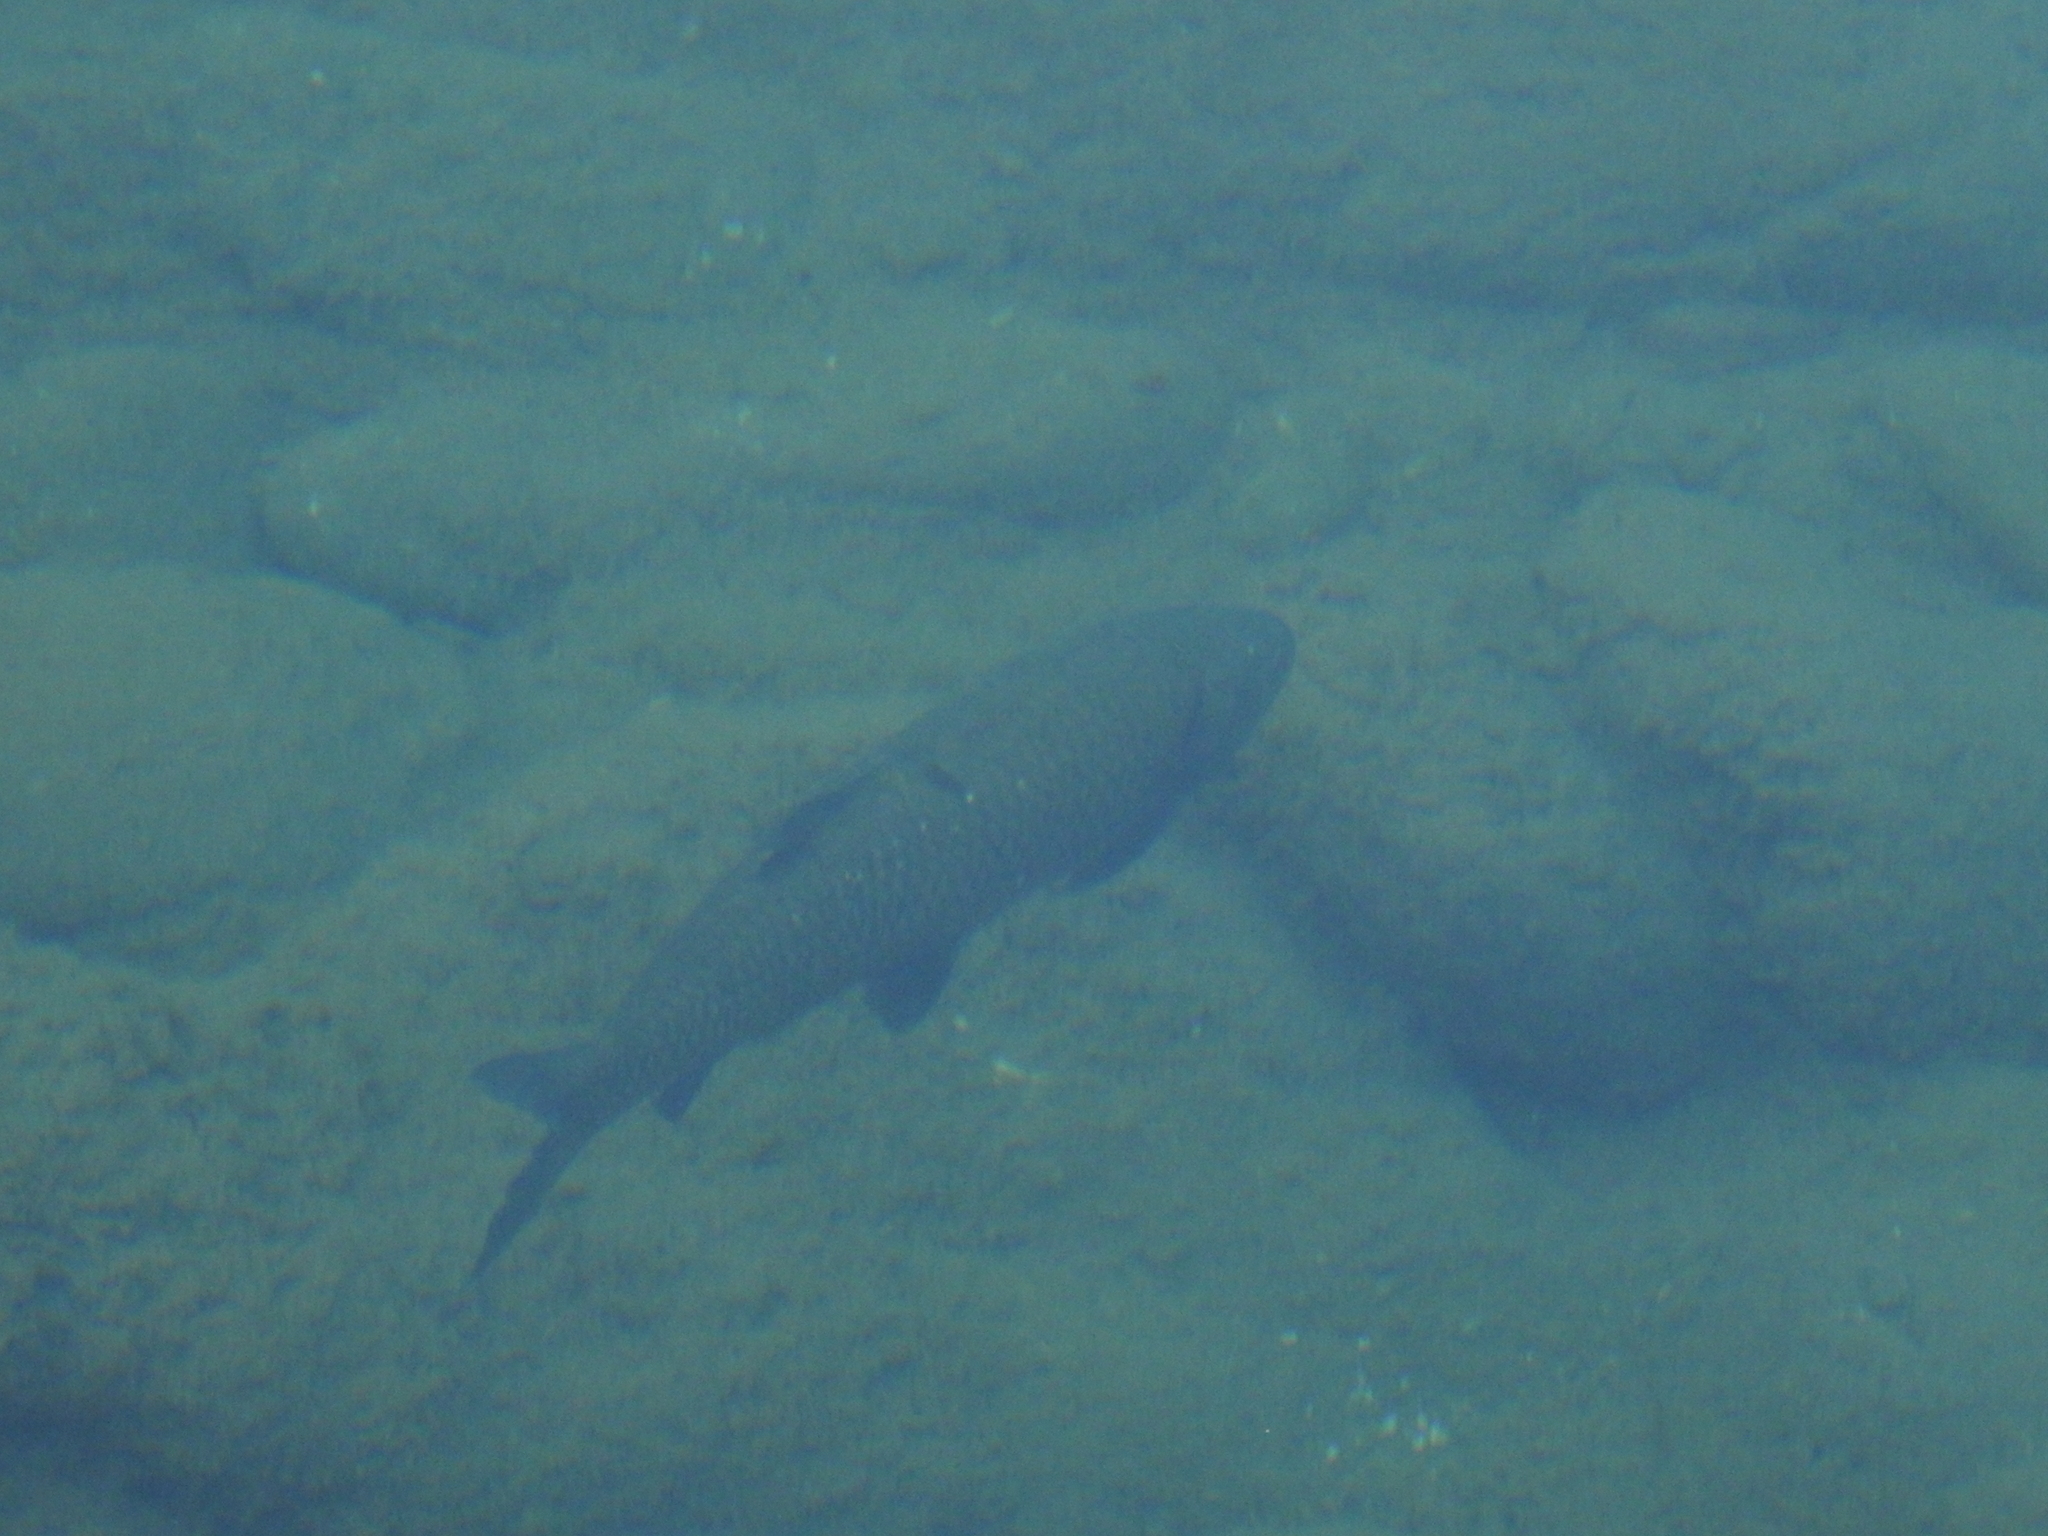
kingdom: Animalia
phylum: Chordata
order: Cypriniformes
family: Cyprinidae
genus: Squalius
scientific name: Squalius squalus
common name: Italian chub
